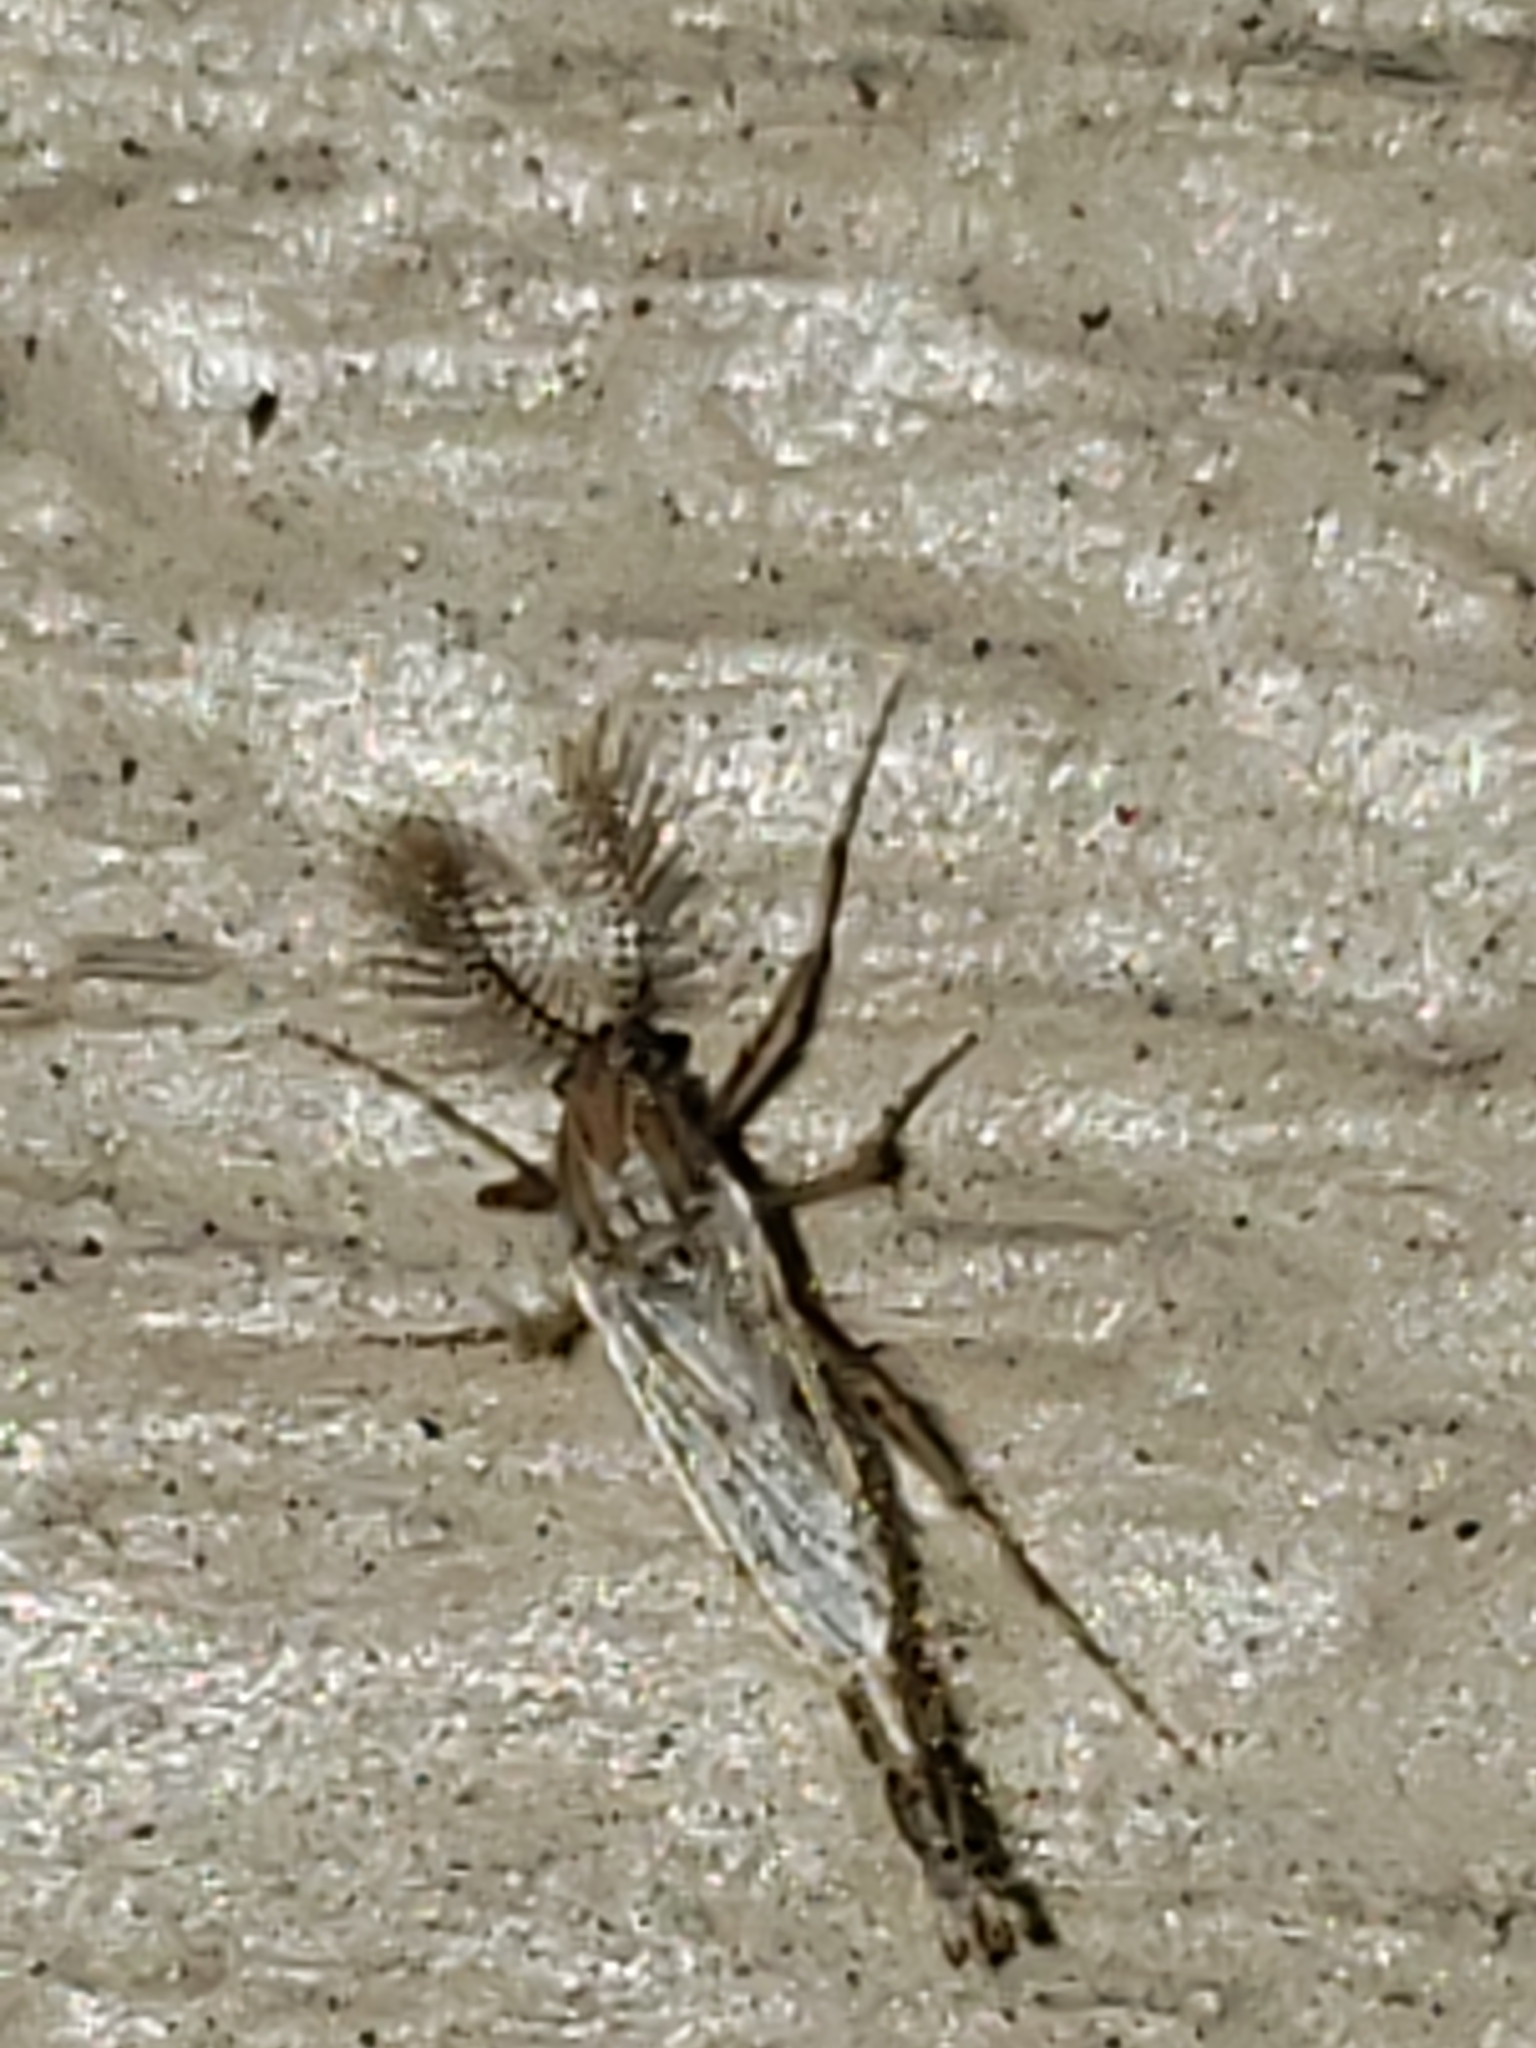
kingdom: Animalia
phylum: Arthropoda
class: Insecta
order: Diptera
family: Chaoboridae
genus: Chaoborus
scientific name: Chaoborus punctipennis
